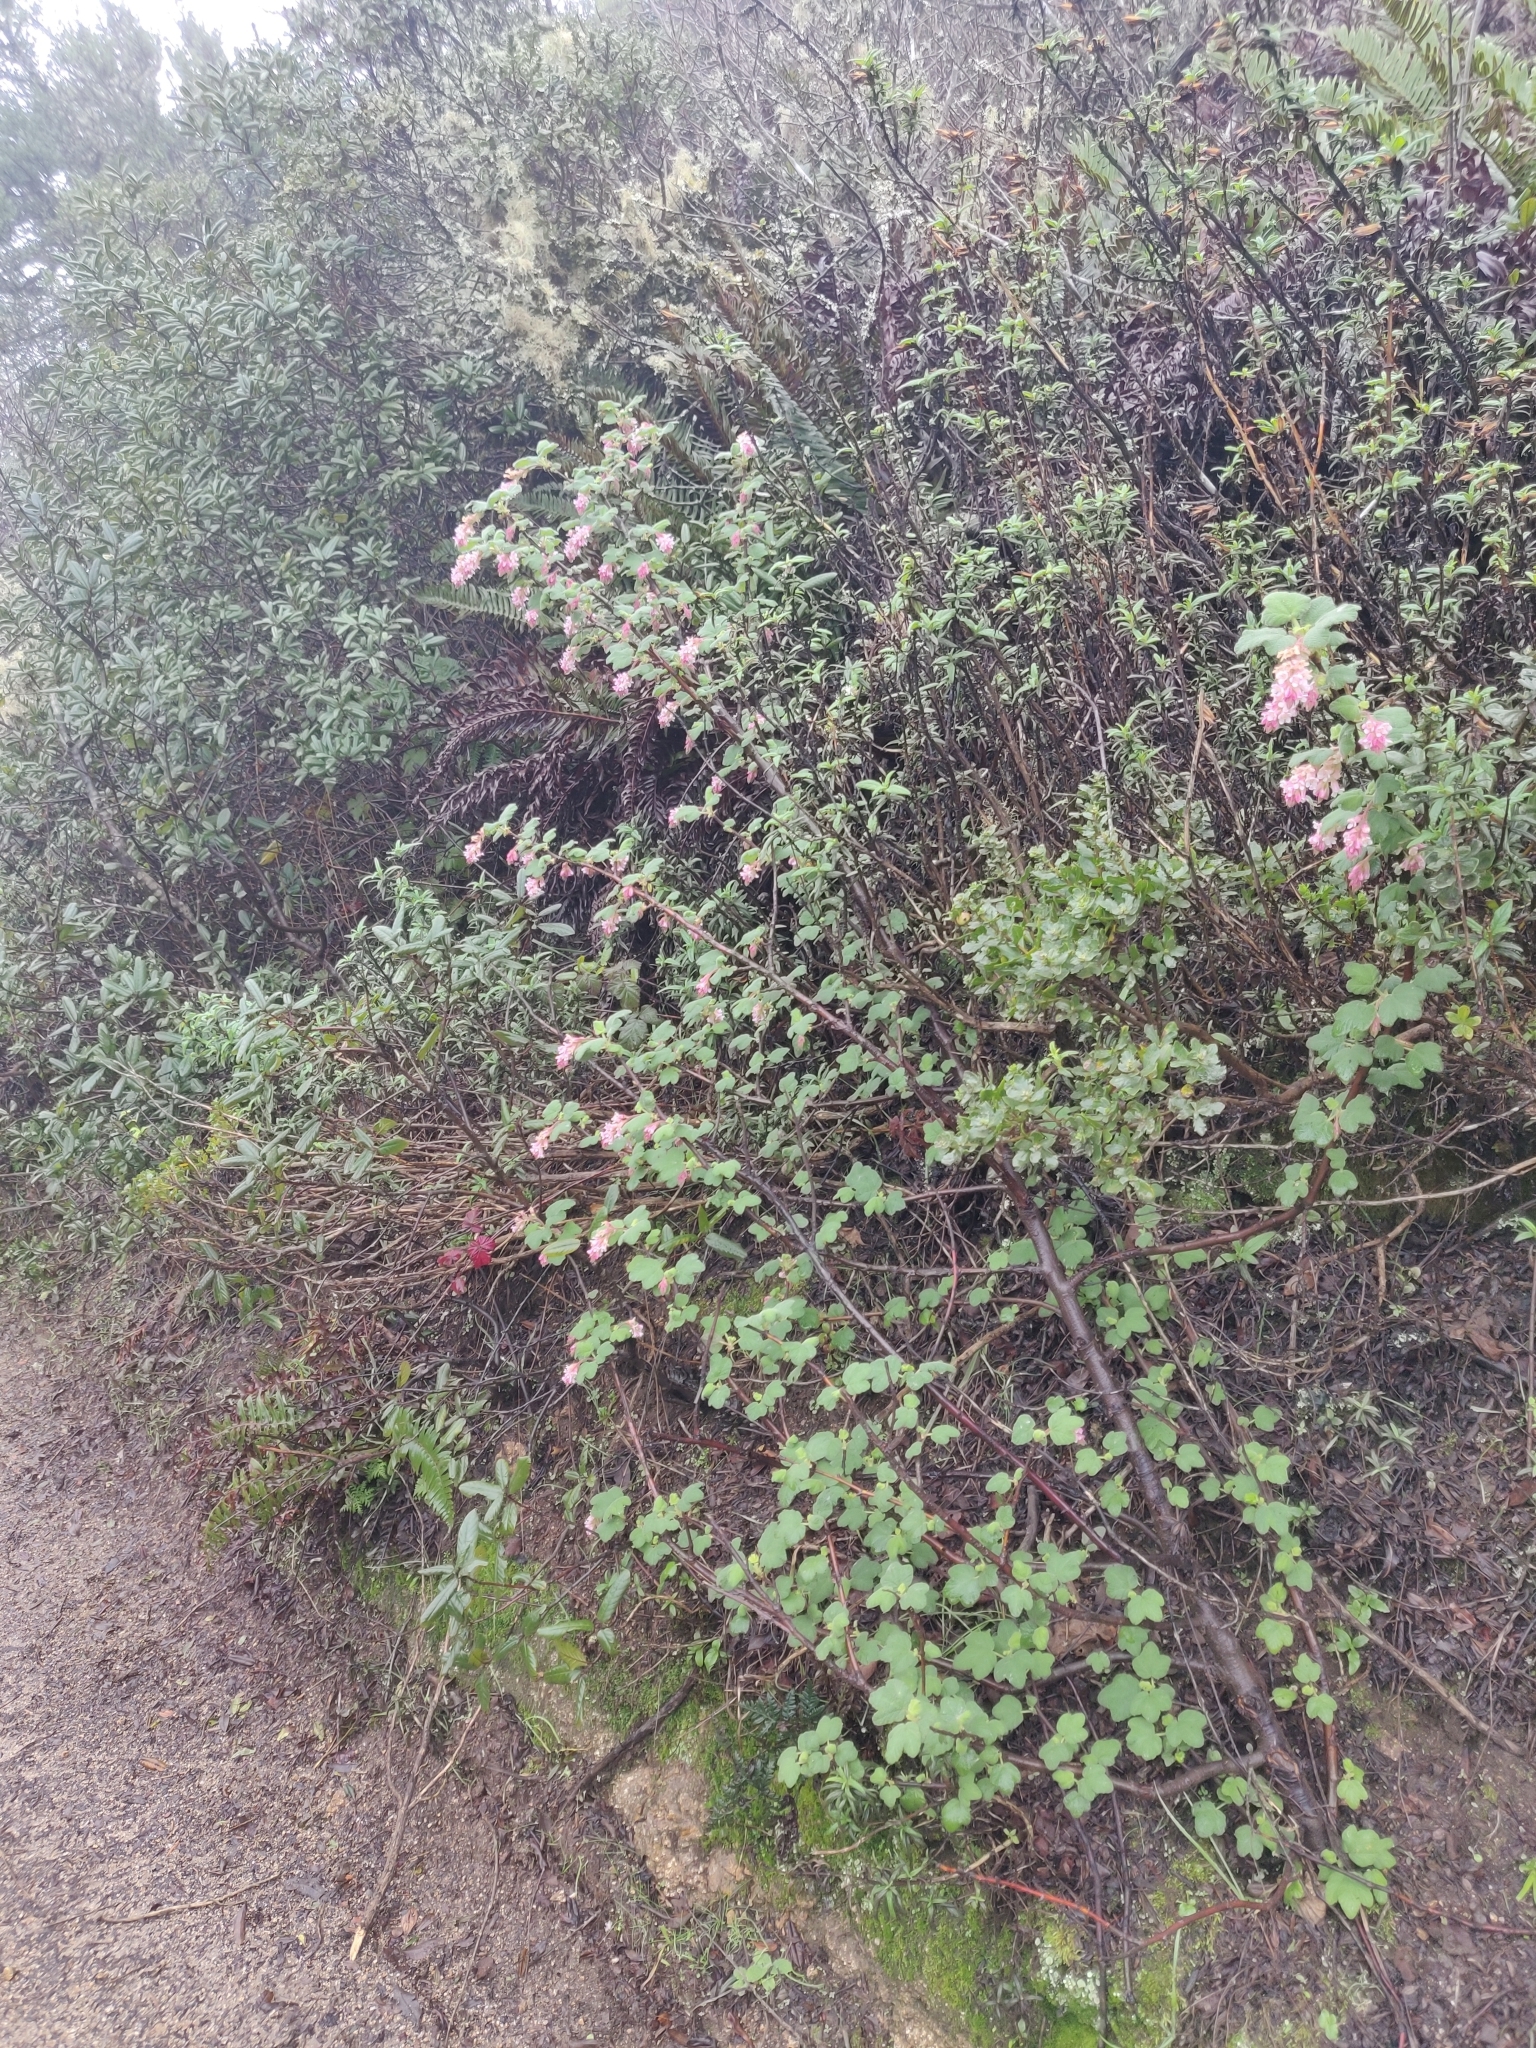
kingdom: Plantae
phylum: Tracheophyta
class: Magnoliopsida
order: Saxifragales
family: Grossulariaceae
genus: Ribes
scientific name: Ribes malvaceum
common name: Chaparral currant
